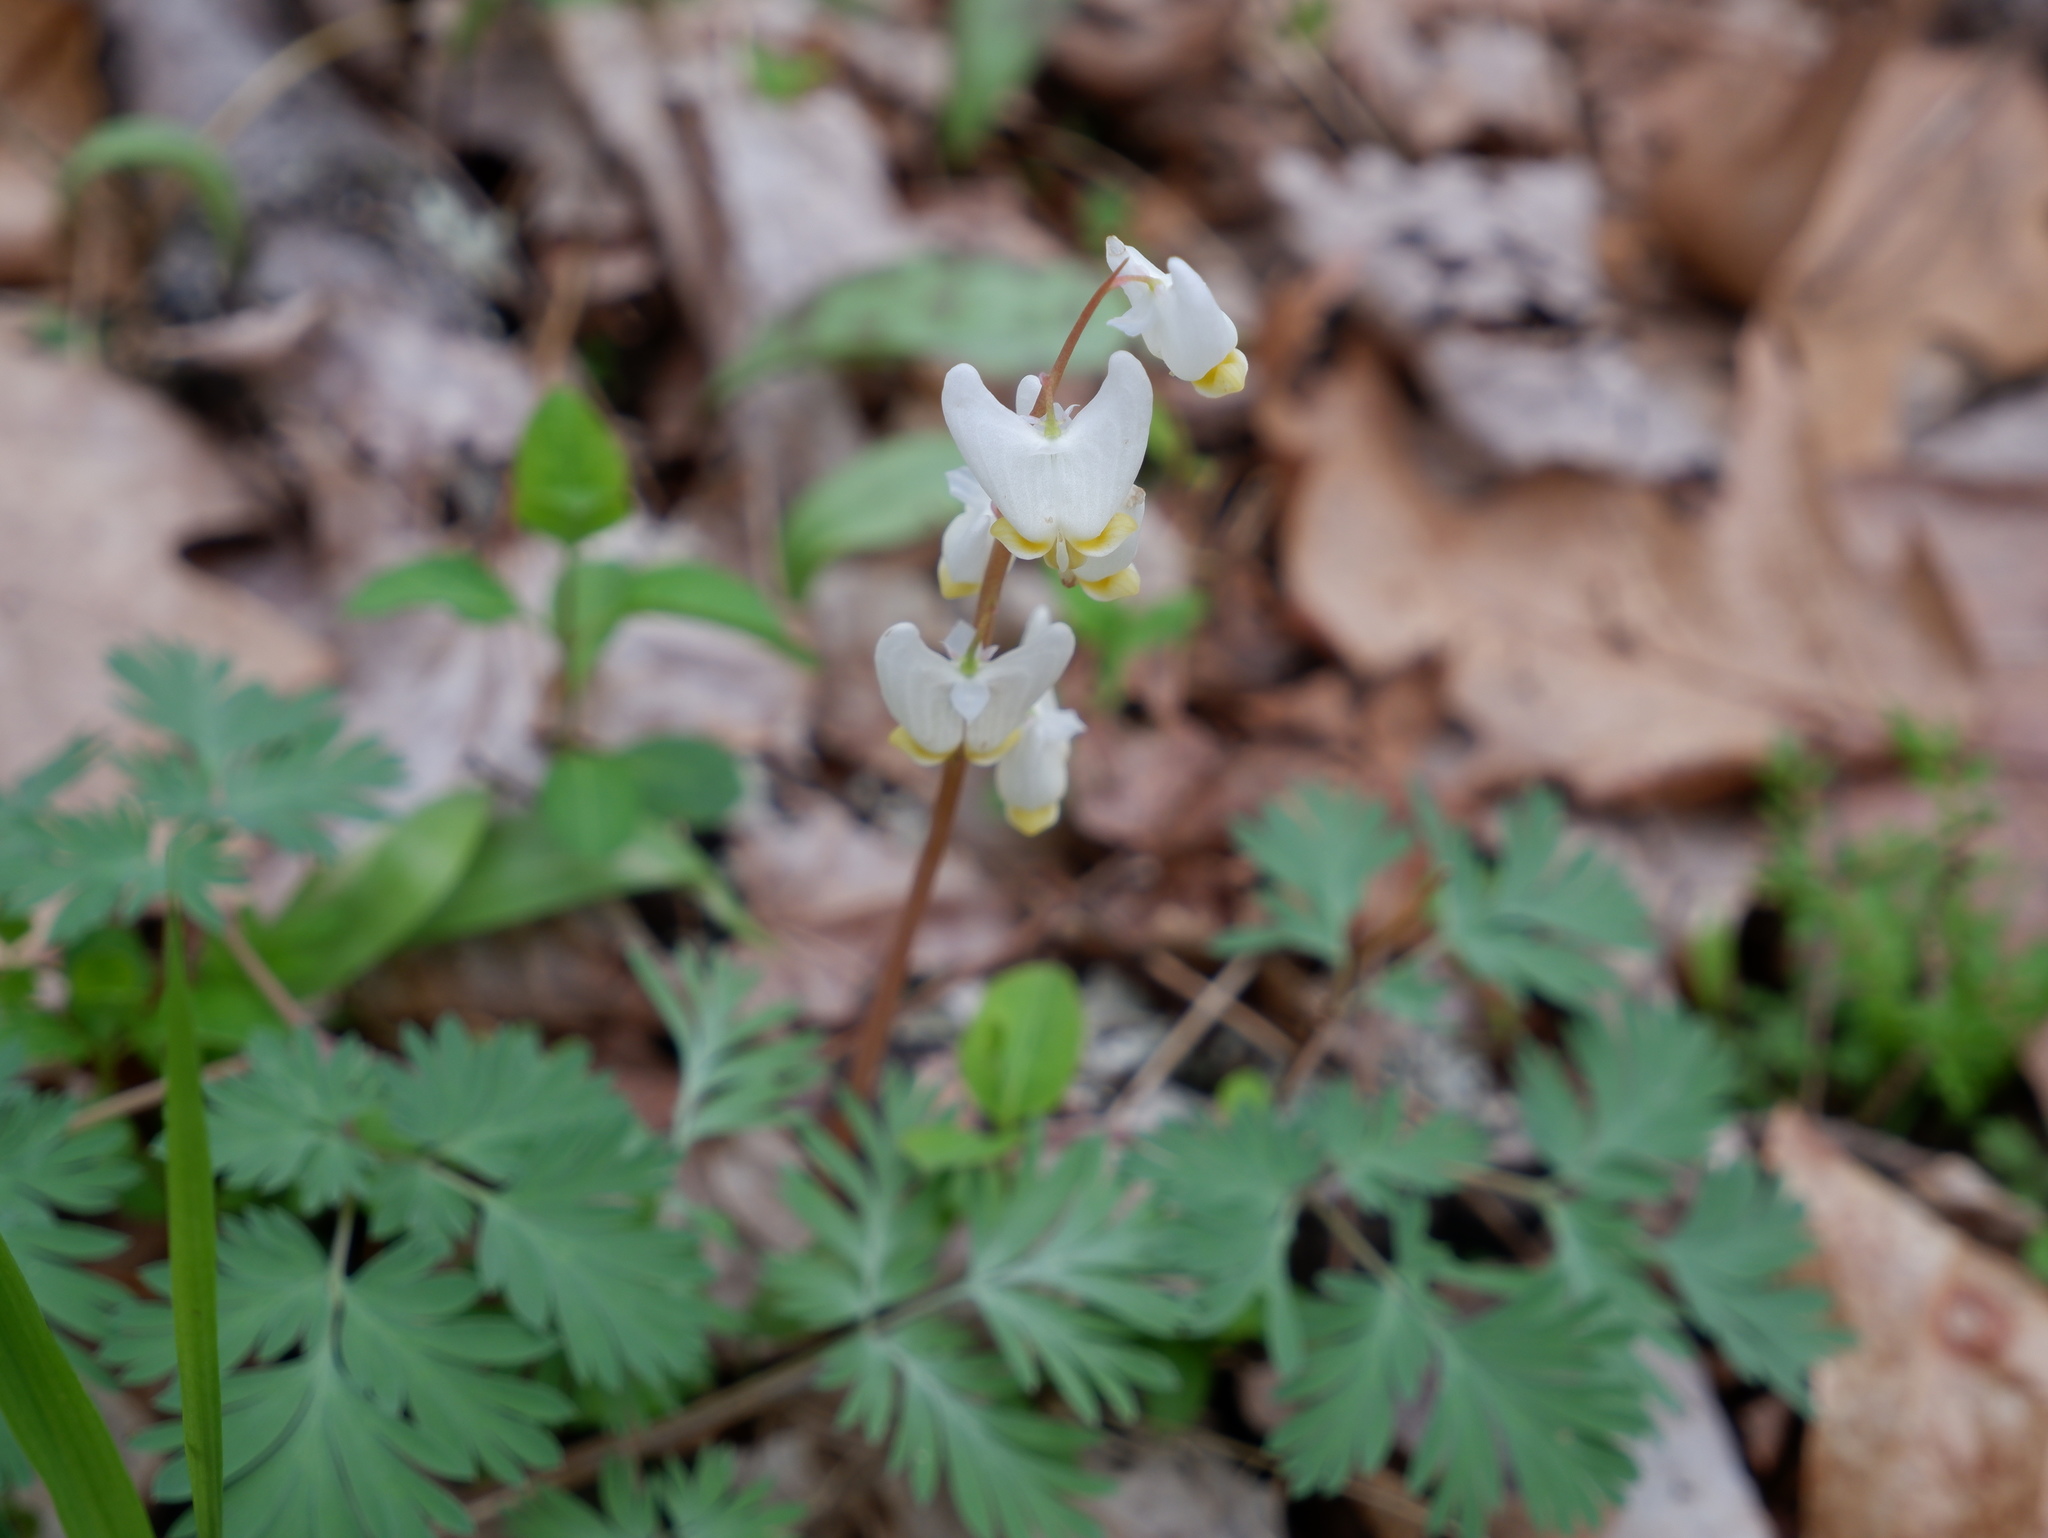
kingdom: Plantae
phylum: Tracheophyta
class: Magnoliopsida
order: Ranunculales
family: Papaveraceae
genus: Dicentra
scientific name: Dicentra cucullaria
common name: Dutchman's breeches
